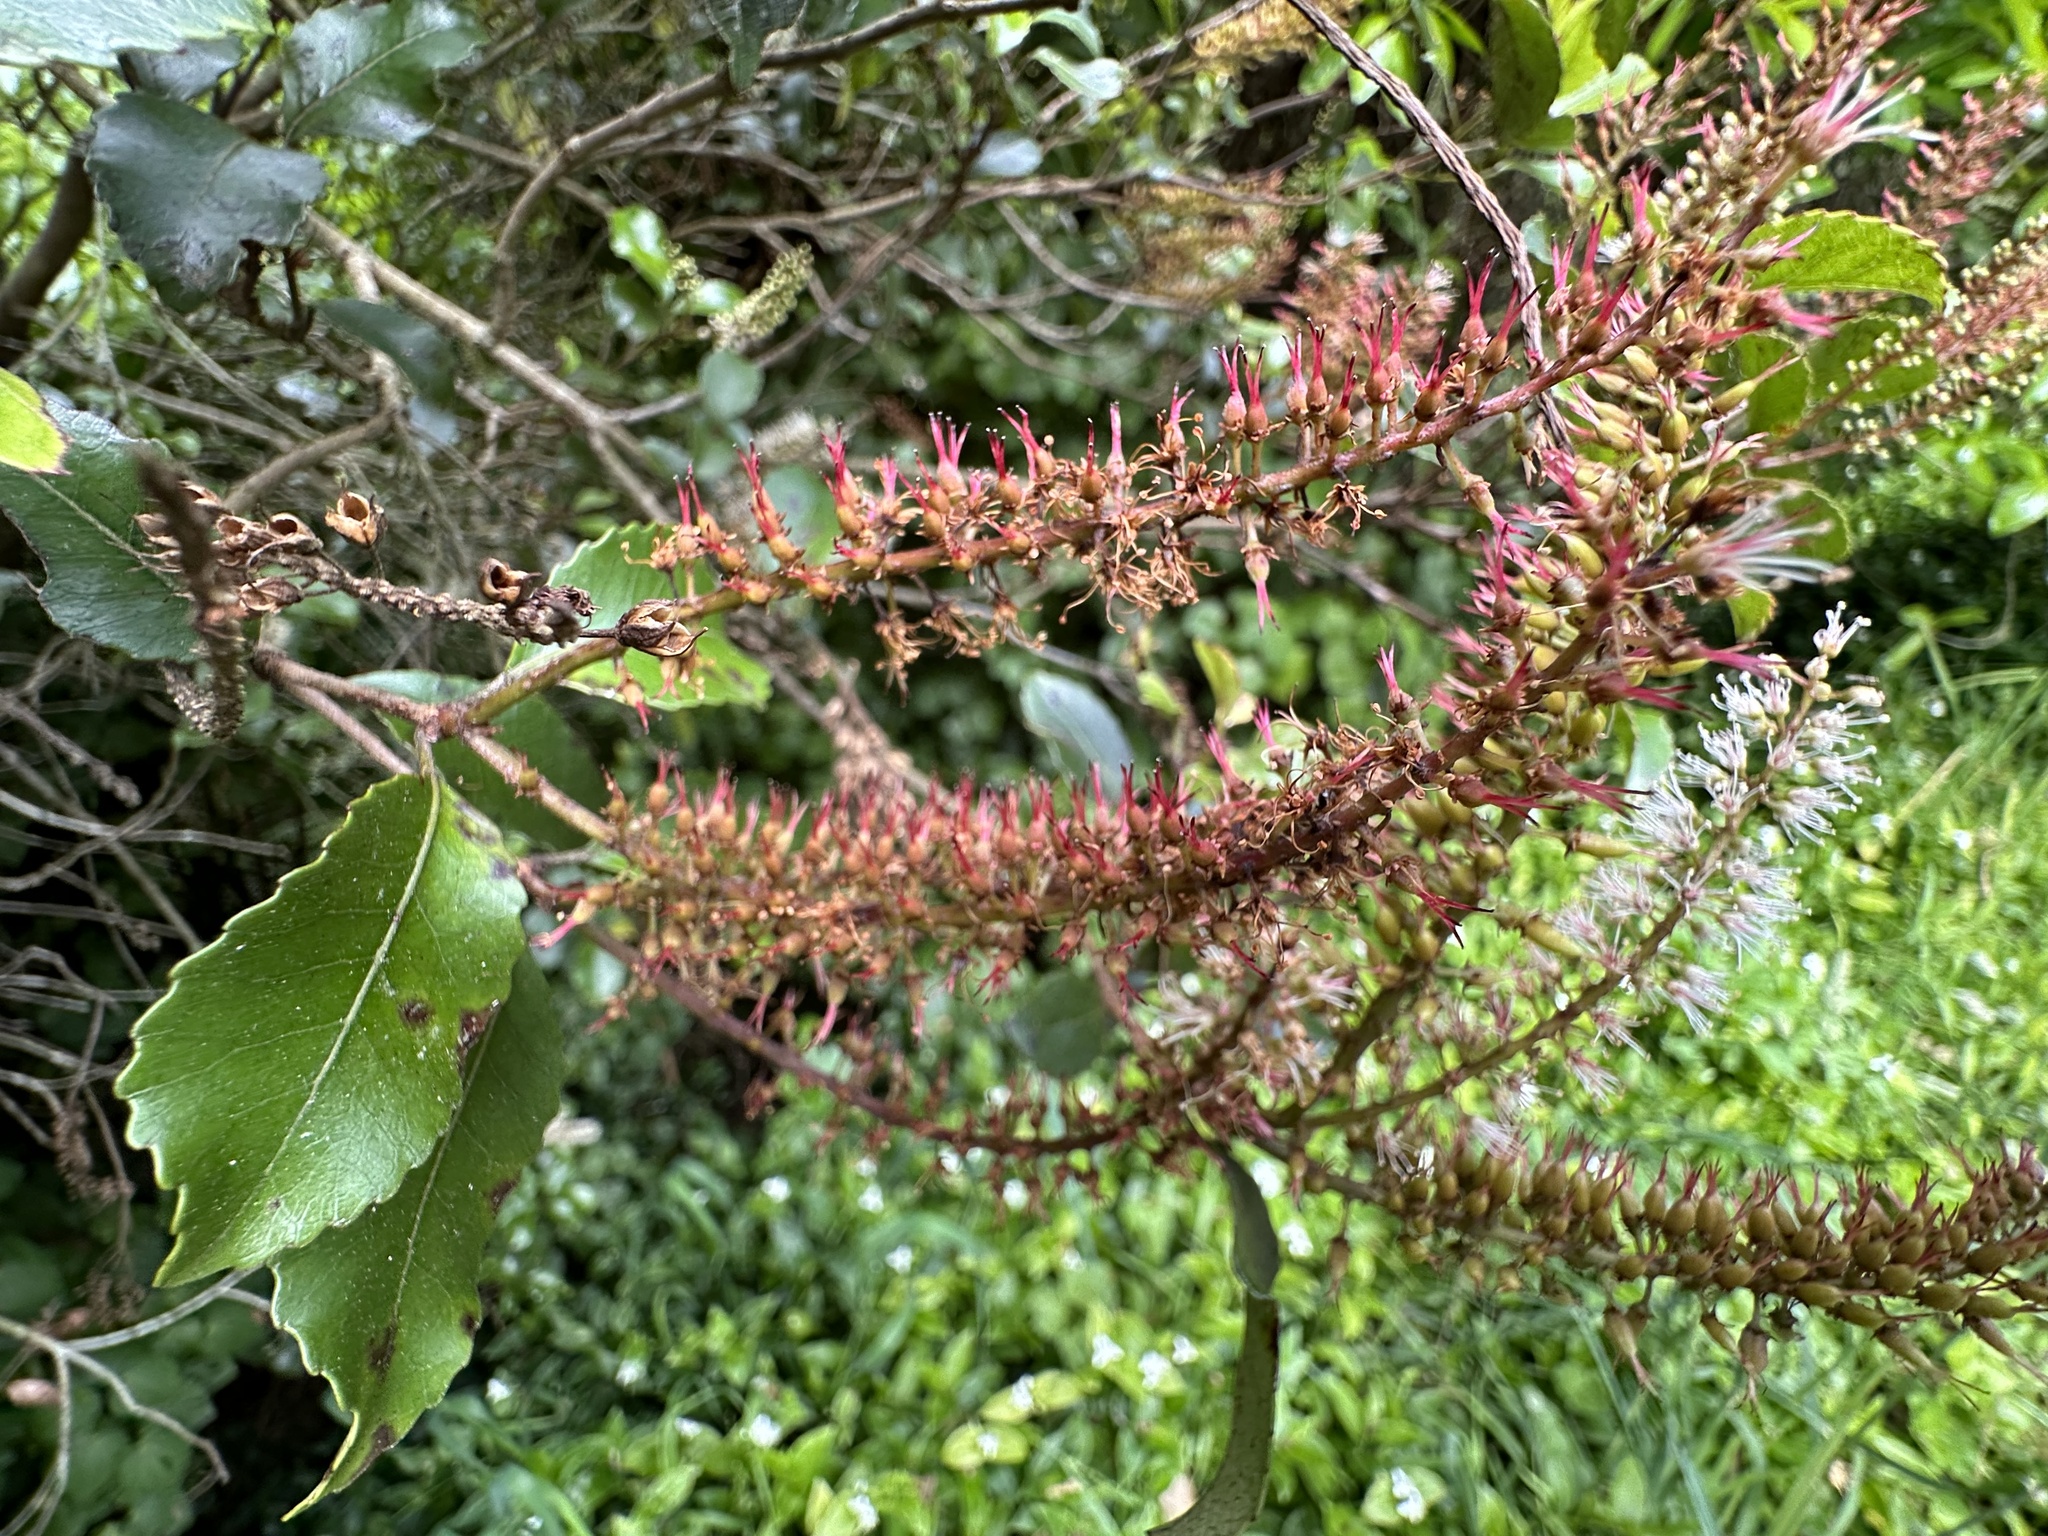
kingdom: Plantae
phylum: Tracheophyta
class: Magnoliopsida
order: Oxalidales
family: Cunoniaceae
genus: Pterophylla
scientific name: Pterophylla racemosa
